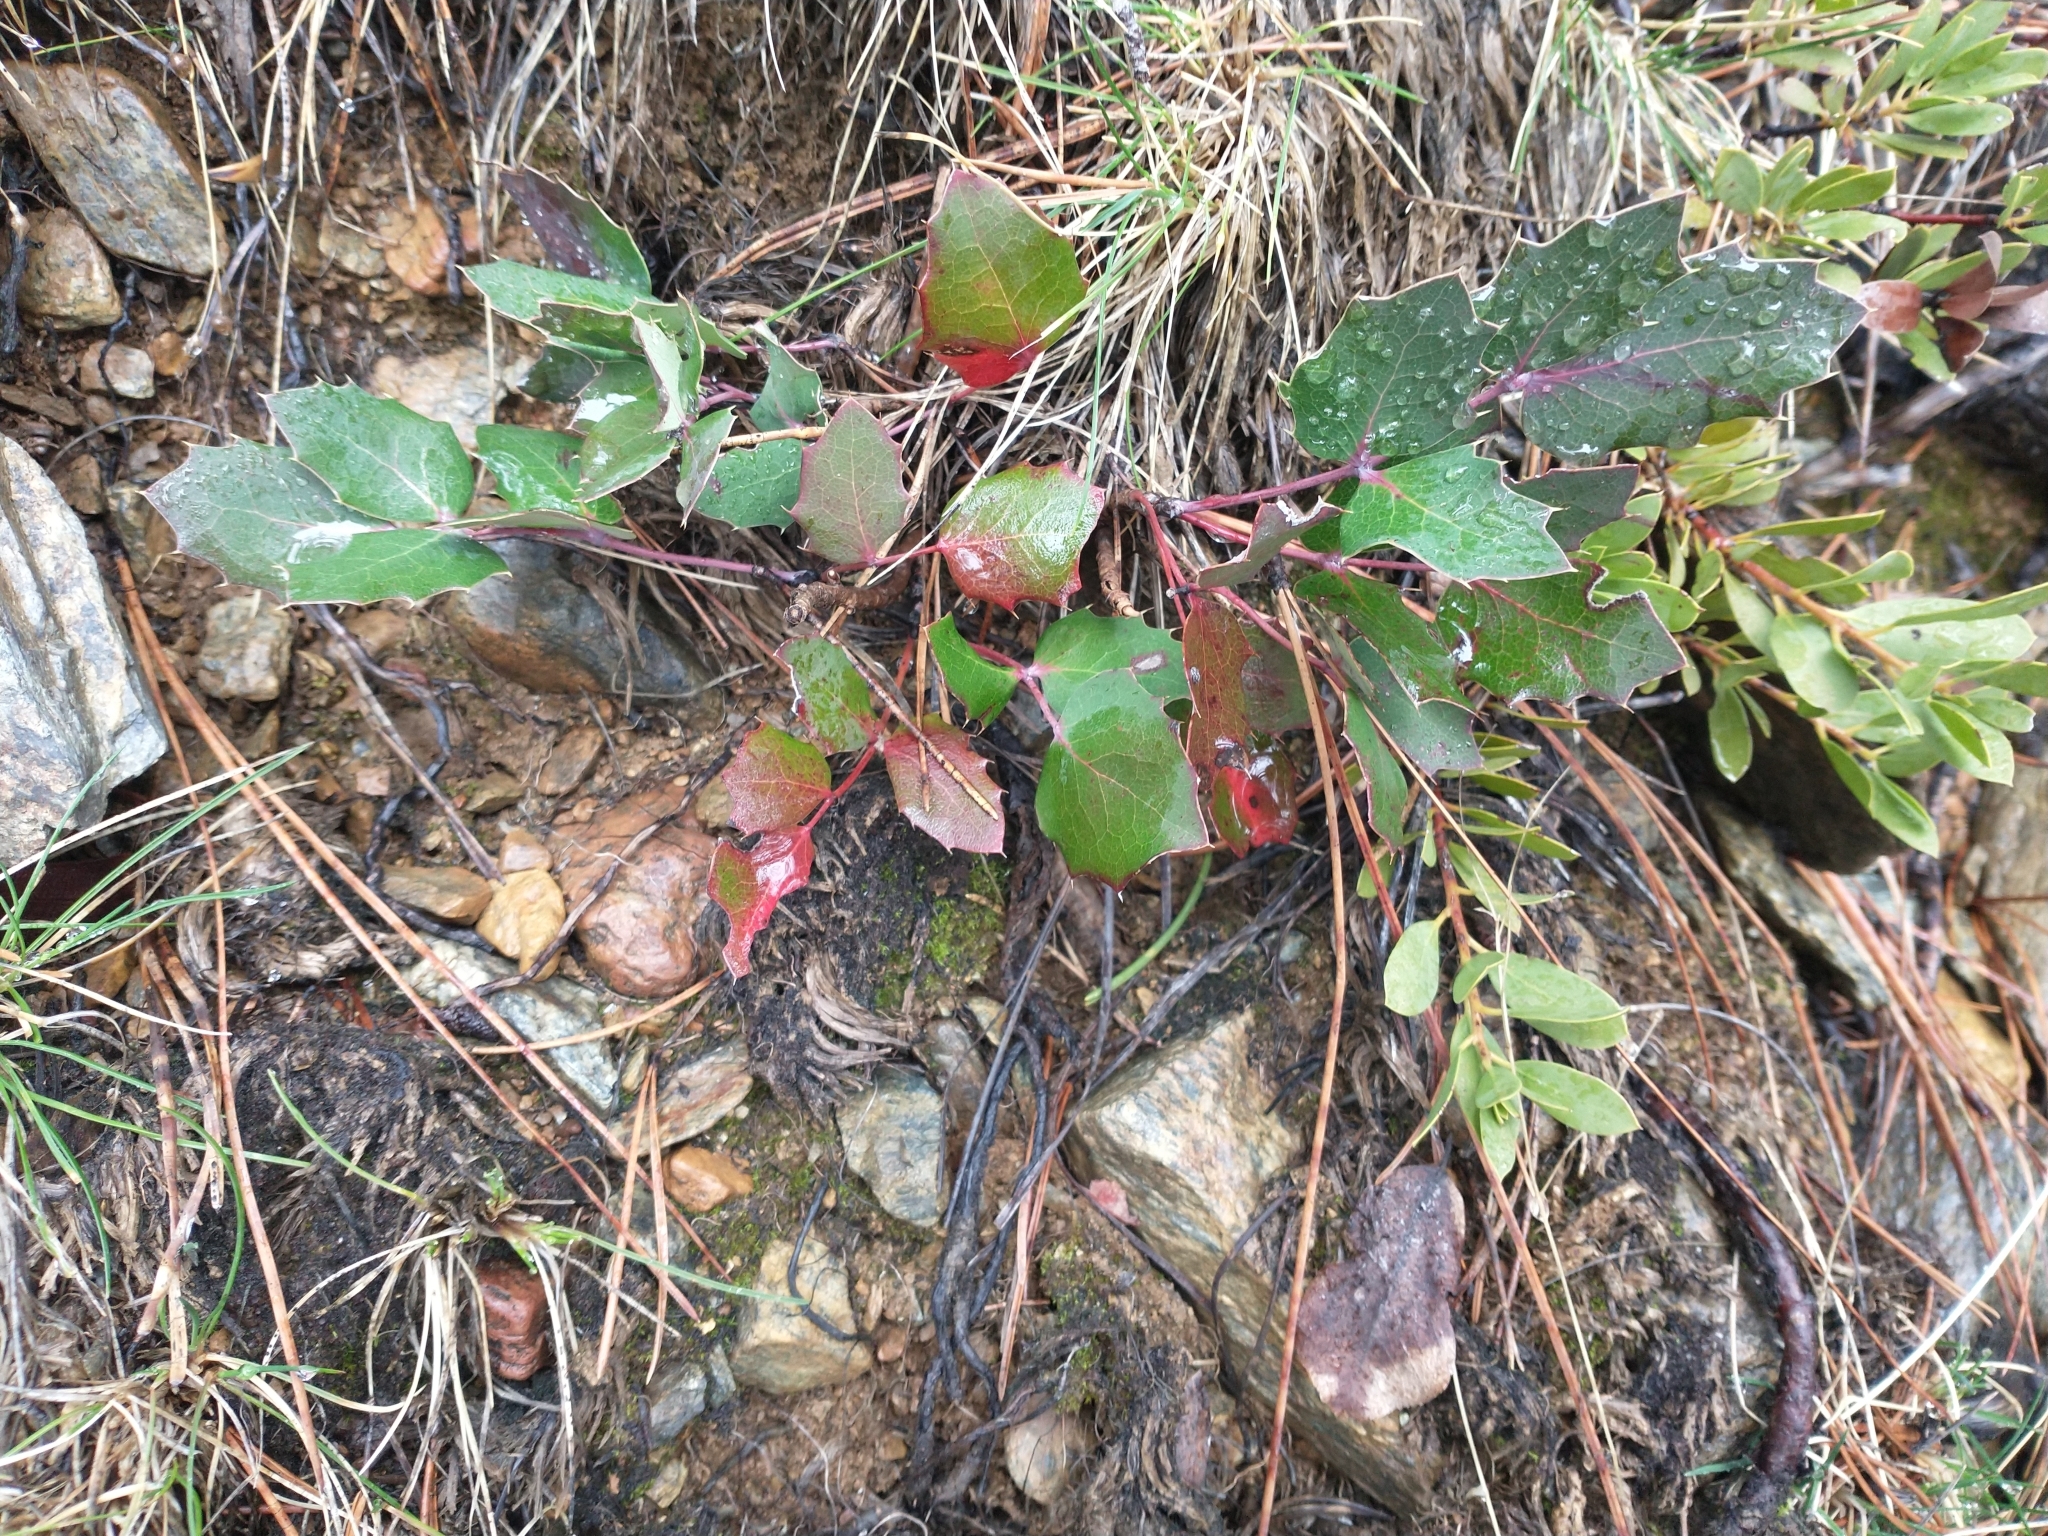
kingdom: Plantae
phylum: Tracheophyta
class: Magnoliopsida
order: Ranunculales
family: Berberidaceae
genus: Mahonia
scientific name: Mahonia repens
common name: Creeping oregon-grape
